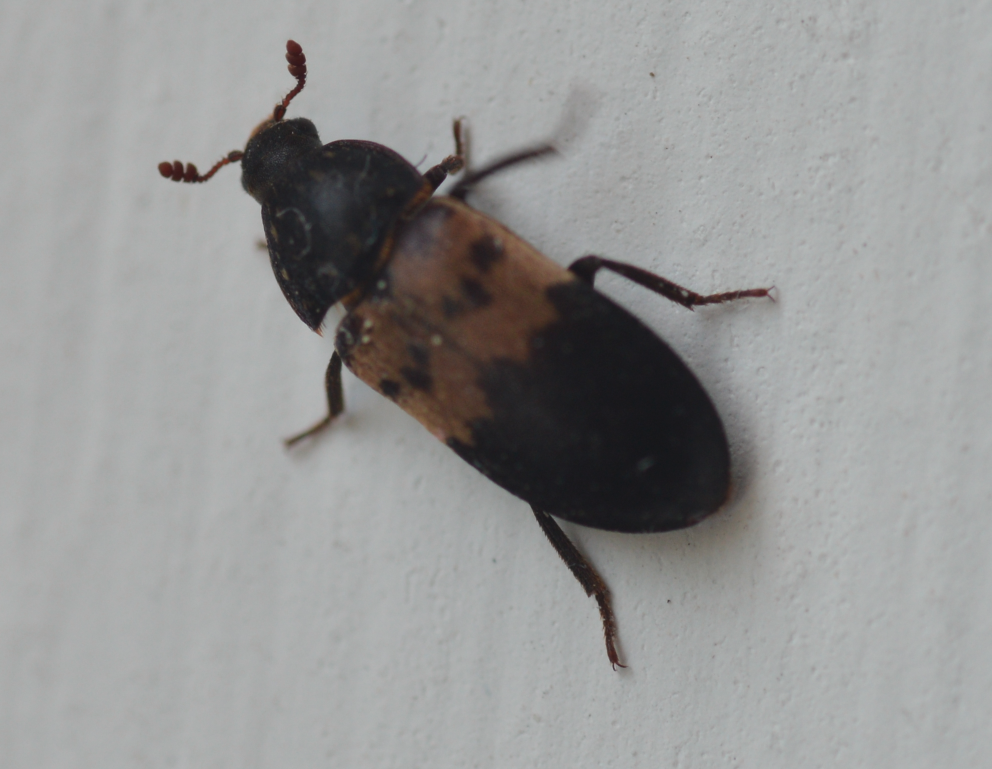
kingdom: Animalia
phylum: Arthropoda
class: Insecta
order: Coleoptera
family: Dermestidae
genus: Dermestes
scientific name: Dermestes lardarius
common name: Larder beetle
